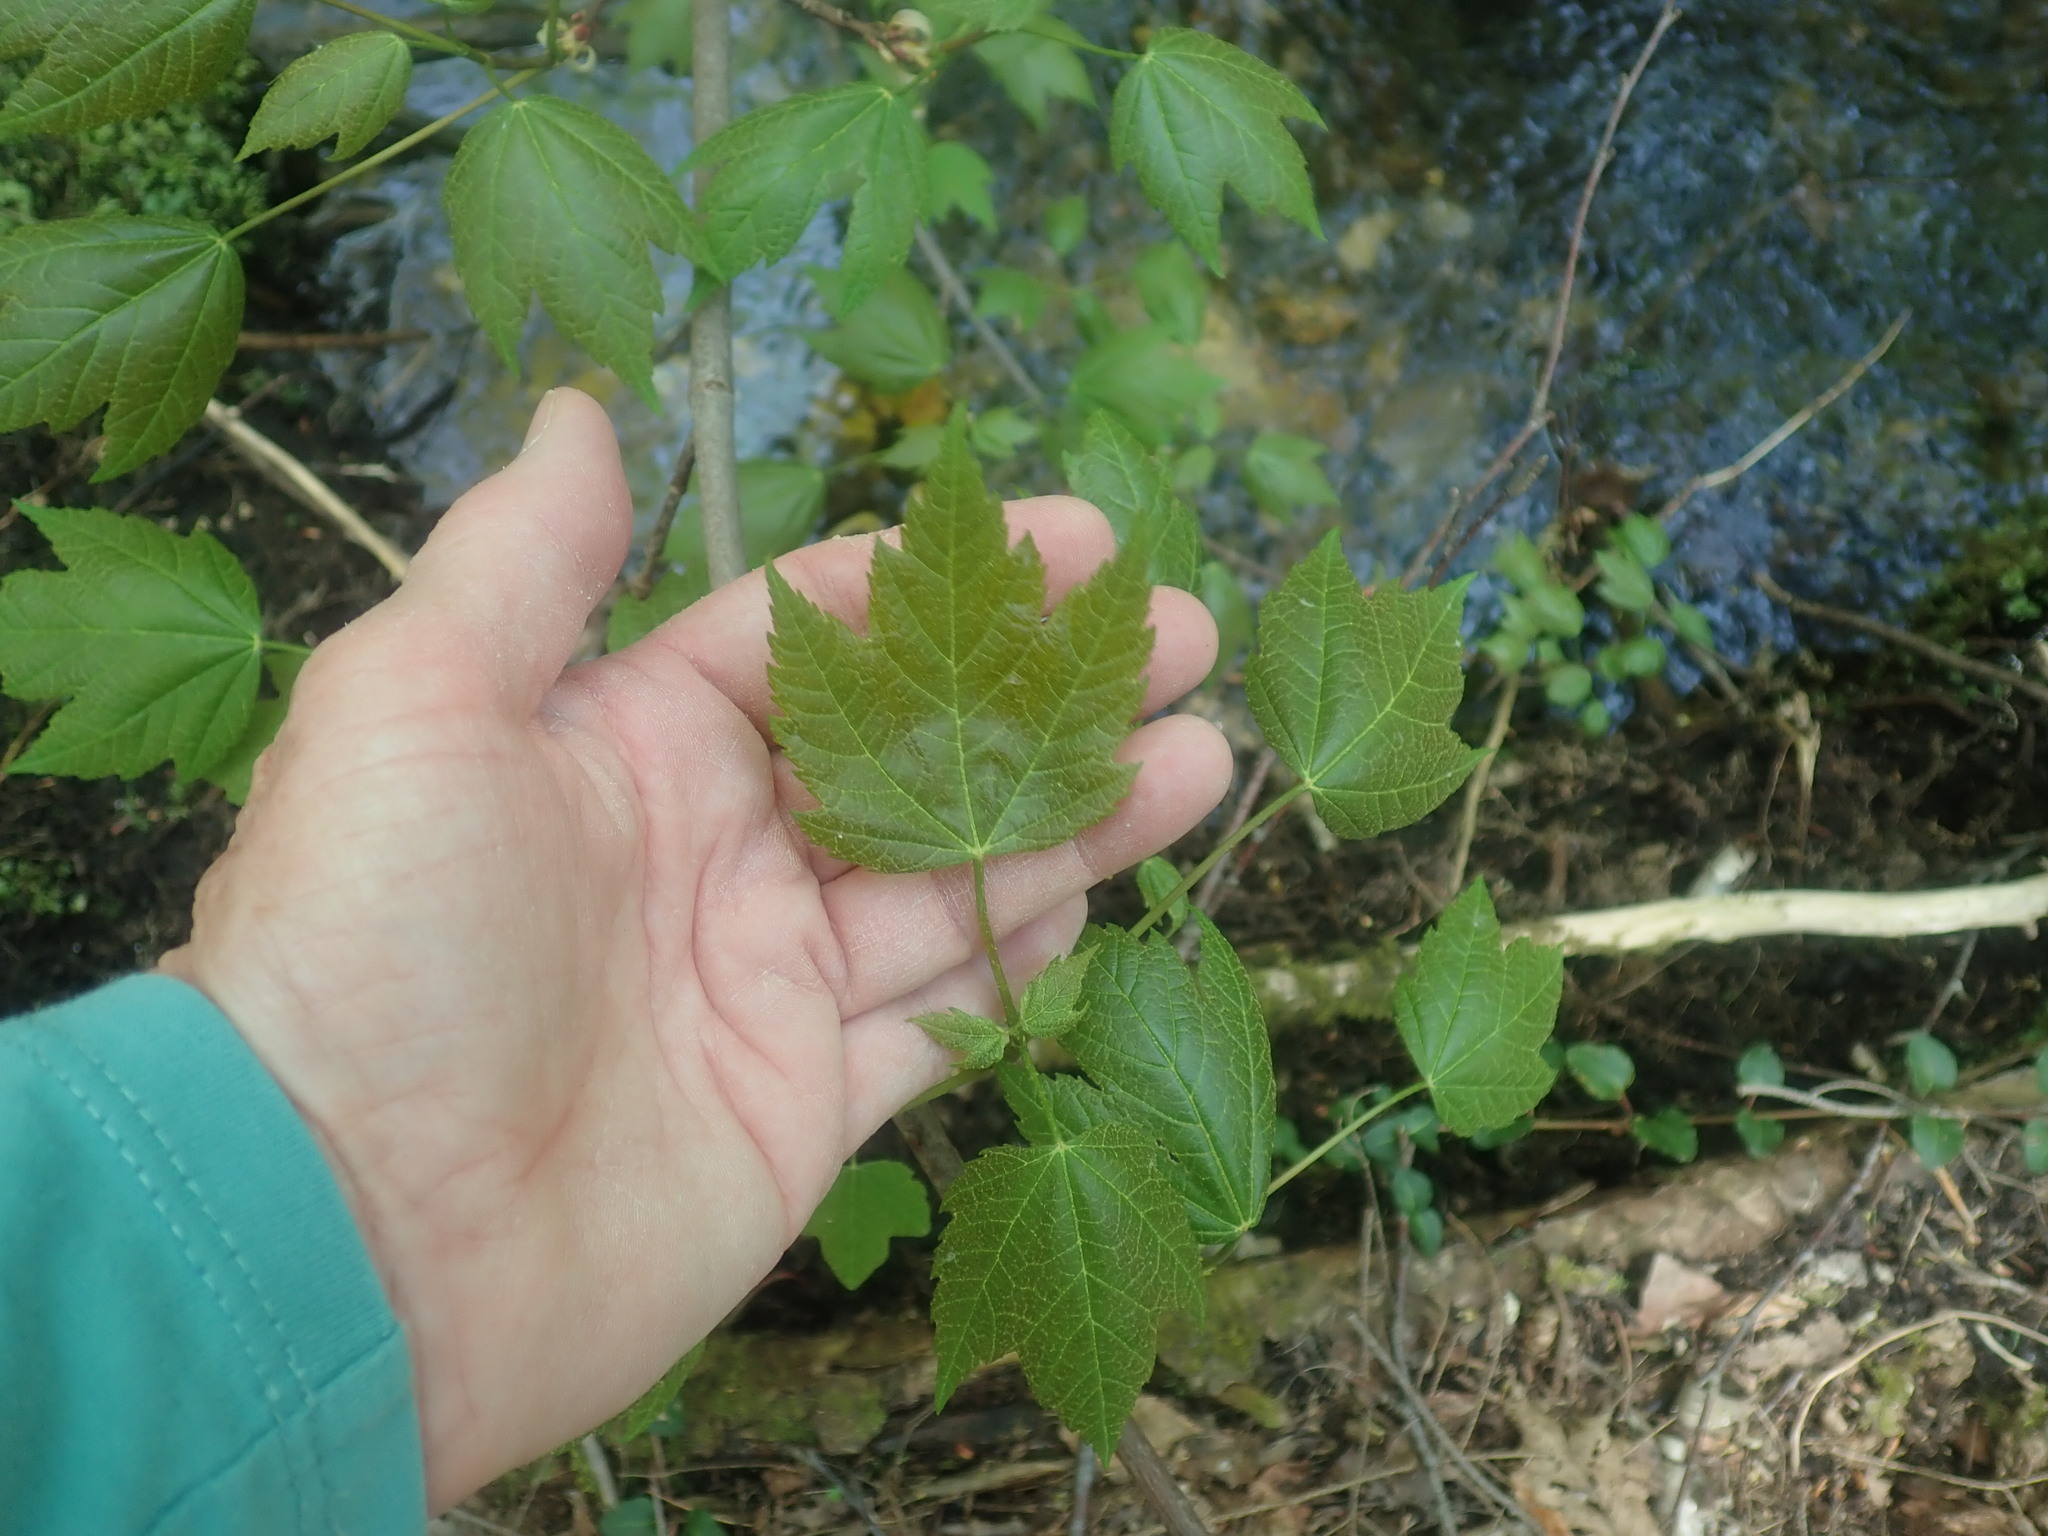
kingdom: Plantae
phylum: Tracheophyta
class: Magnoliopsida
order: Sapindales
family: Sapindaceae
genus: Acer
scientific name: Acer spicatum
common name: Mountain maple
